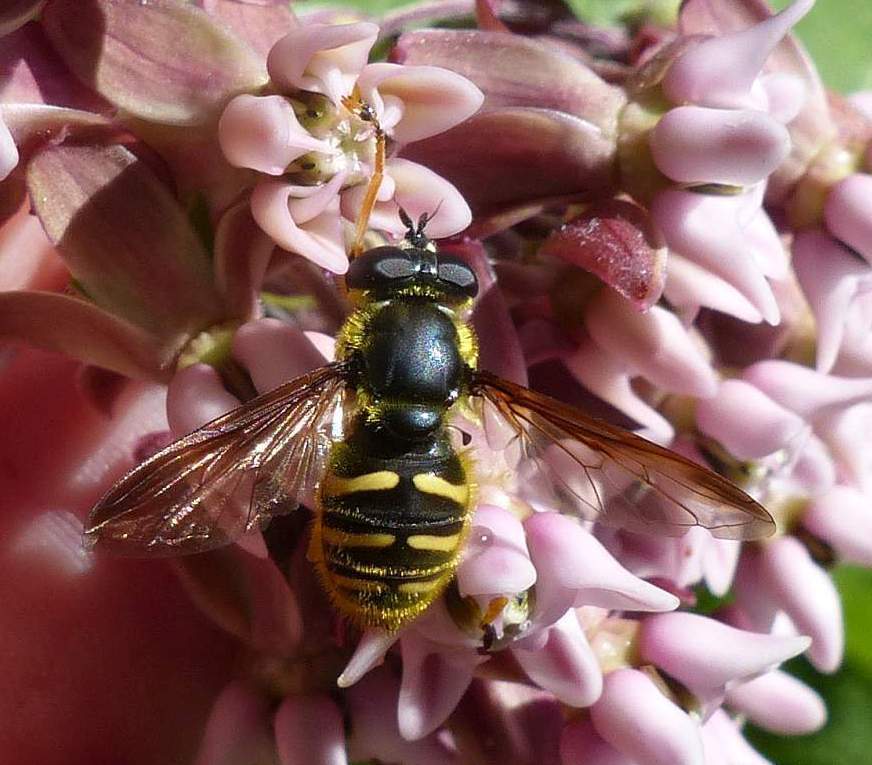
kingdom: Animalia
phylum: Arthropoda
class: Insecta
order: Diptera
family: Syrphidae
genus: Sericomyia
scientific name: Sericomyia chrysotoxoides
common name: Oblique-banded pond fly
